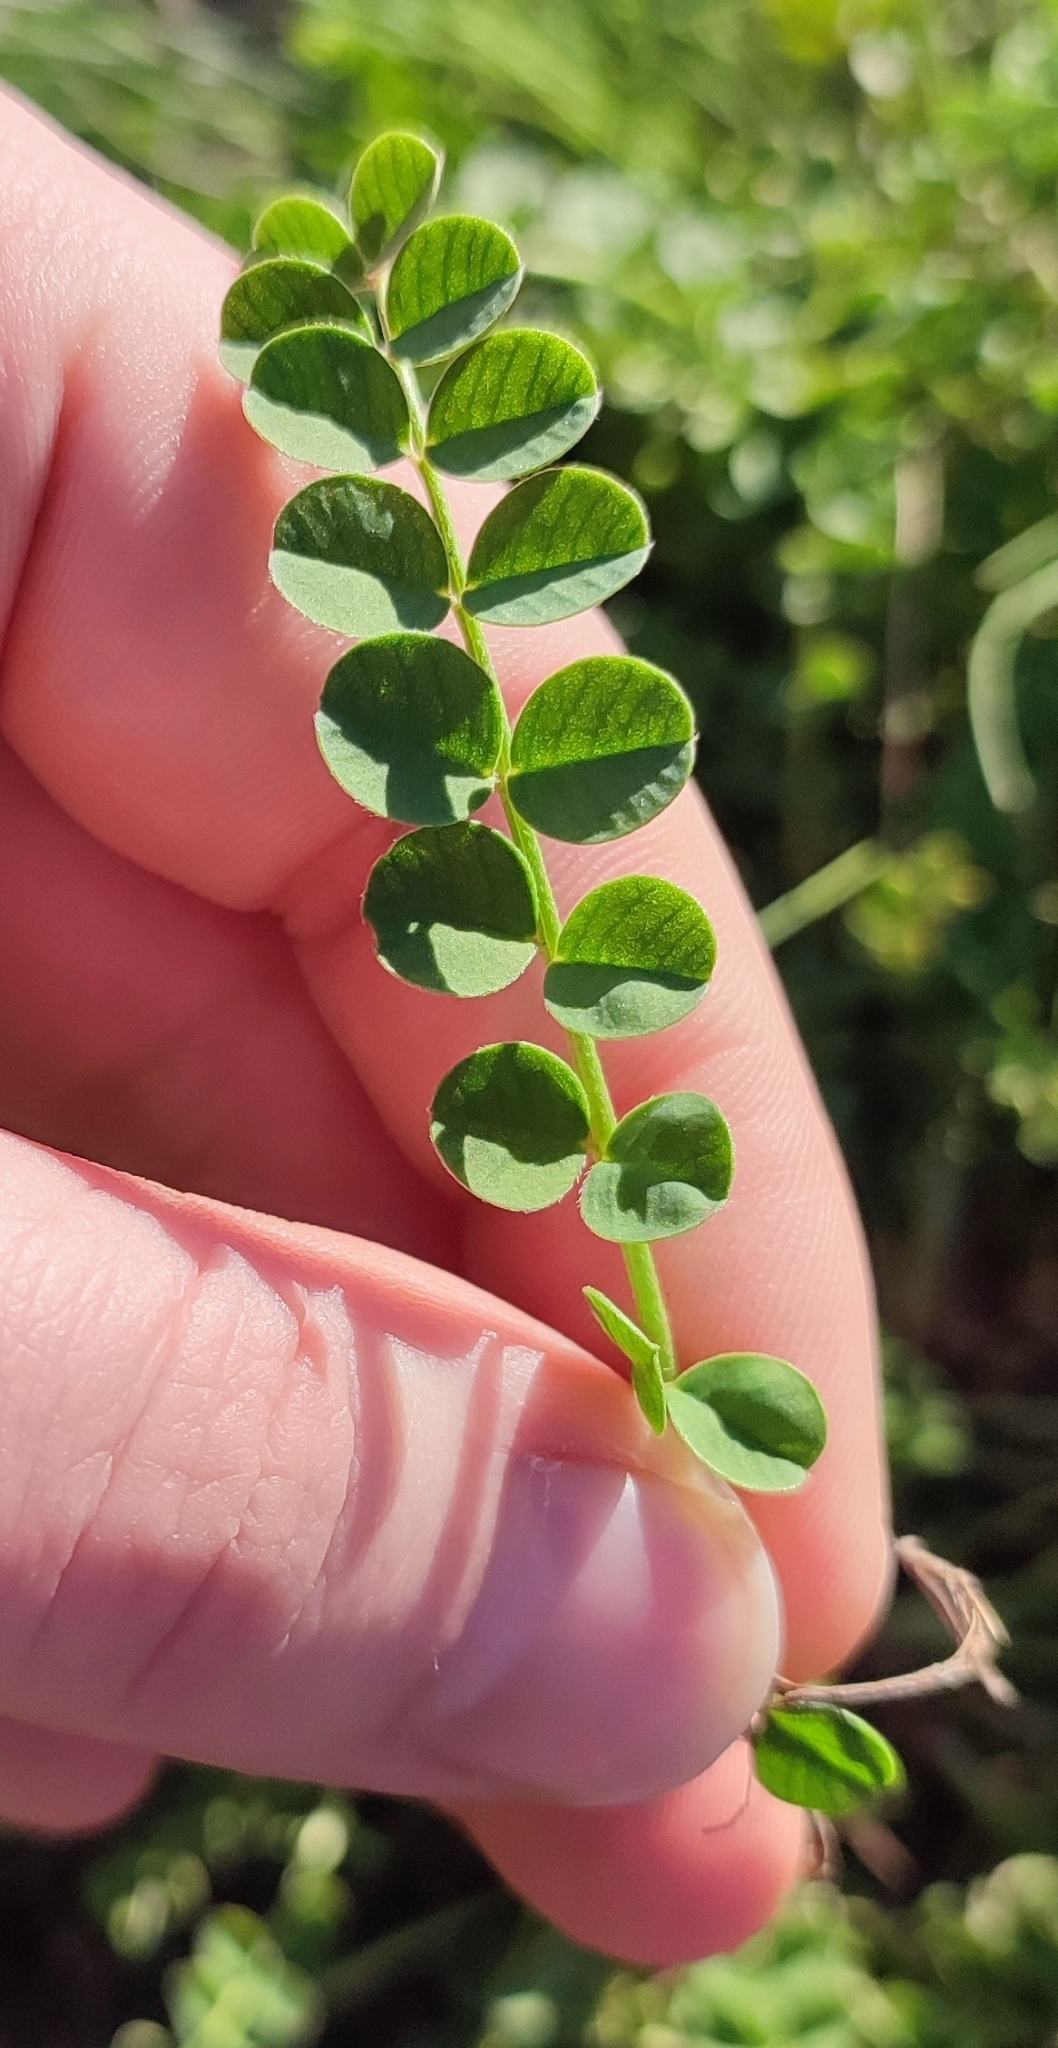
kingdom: Plantae
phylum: Tracheophyta
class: Magnoliopsida
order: Fabales
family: Fabaceae
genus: Astragalus
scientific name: Astragalus danicus
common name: Purple milk-vetch
